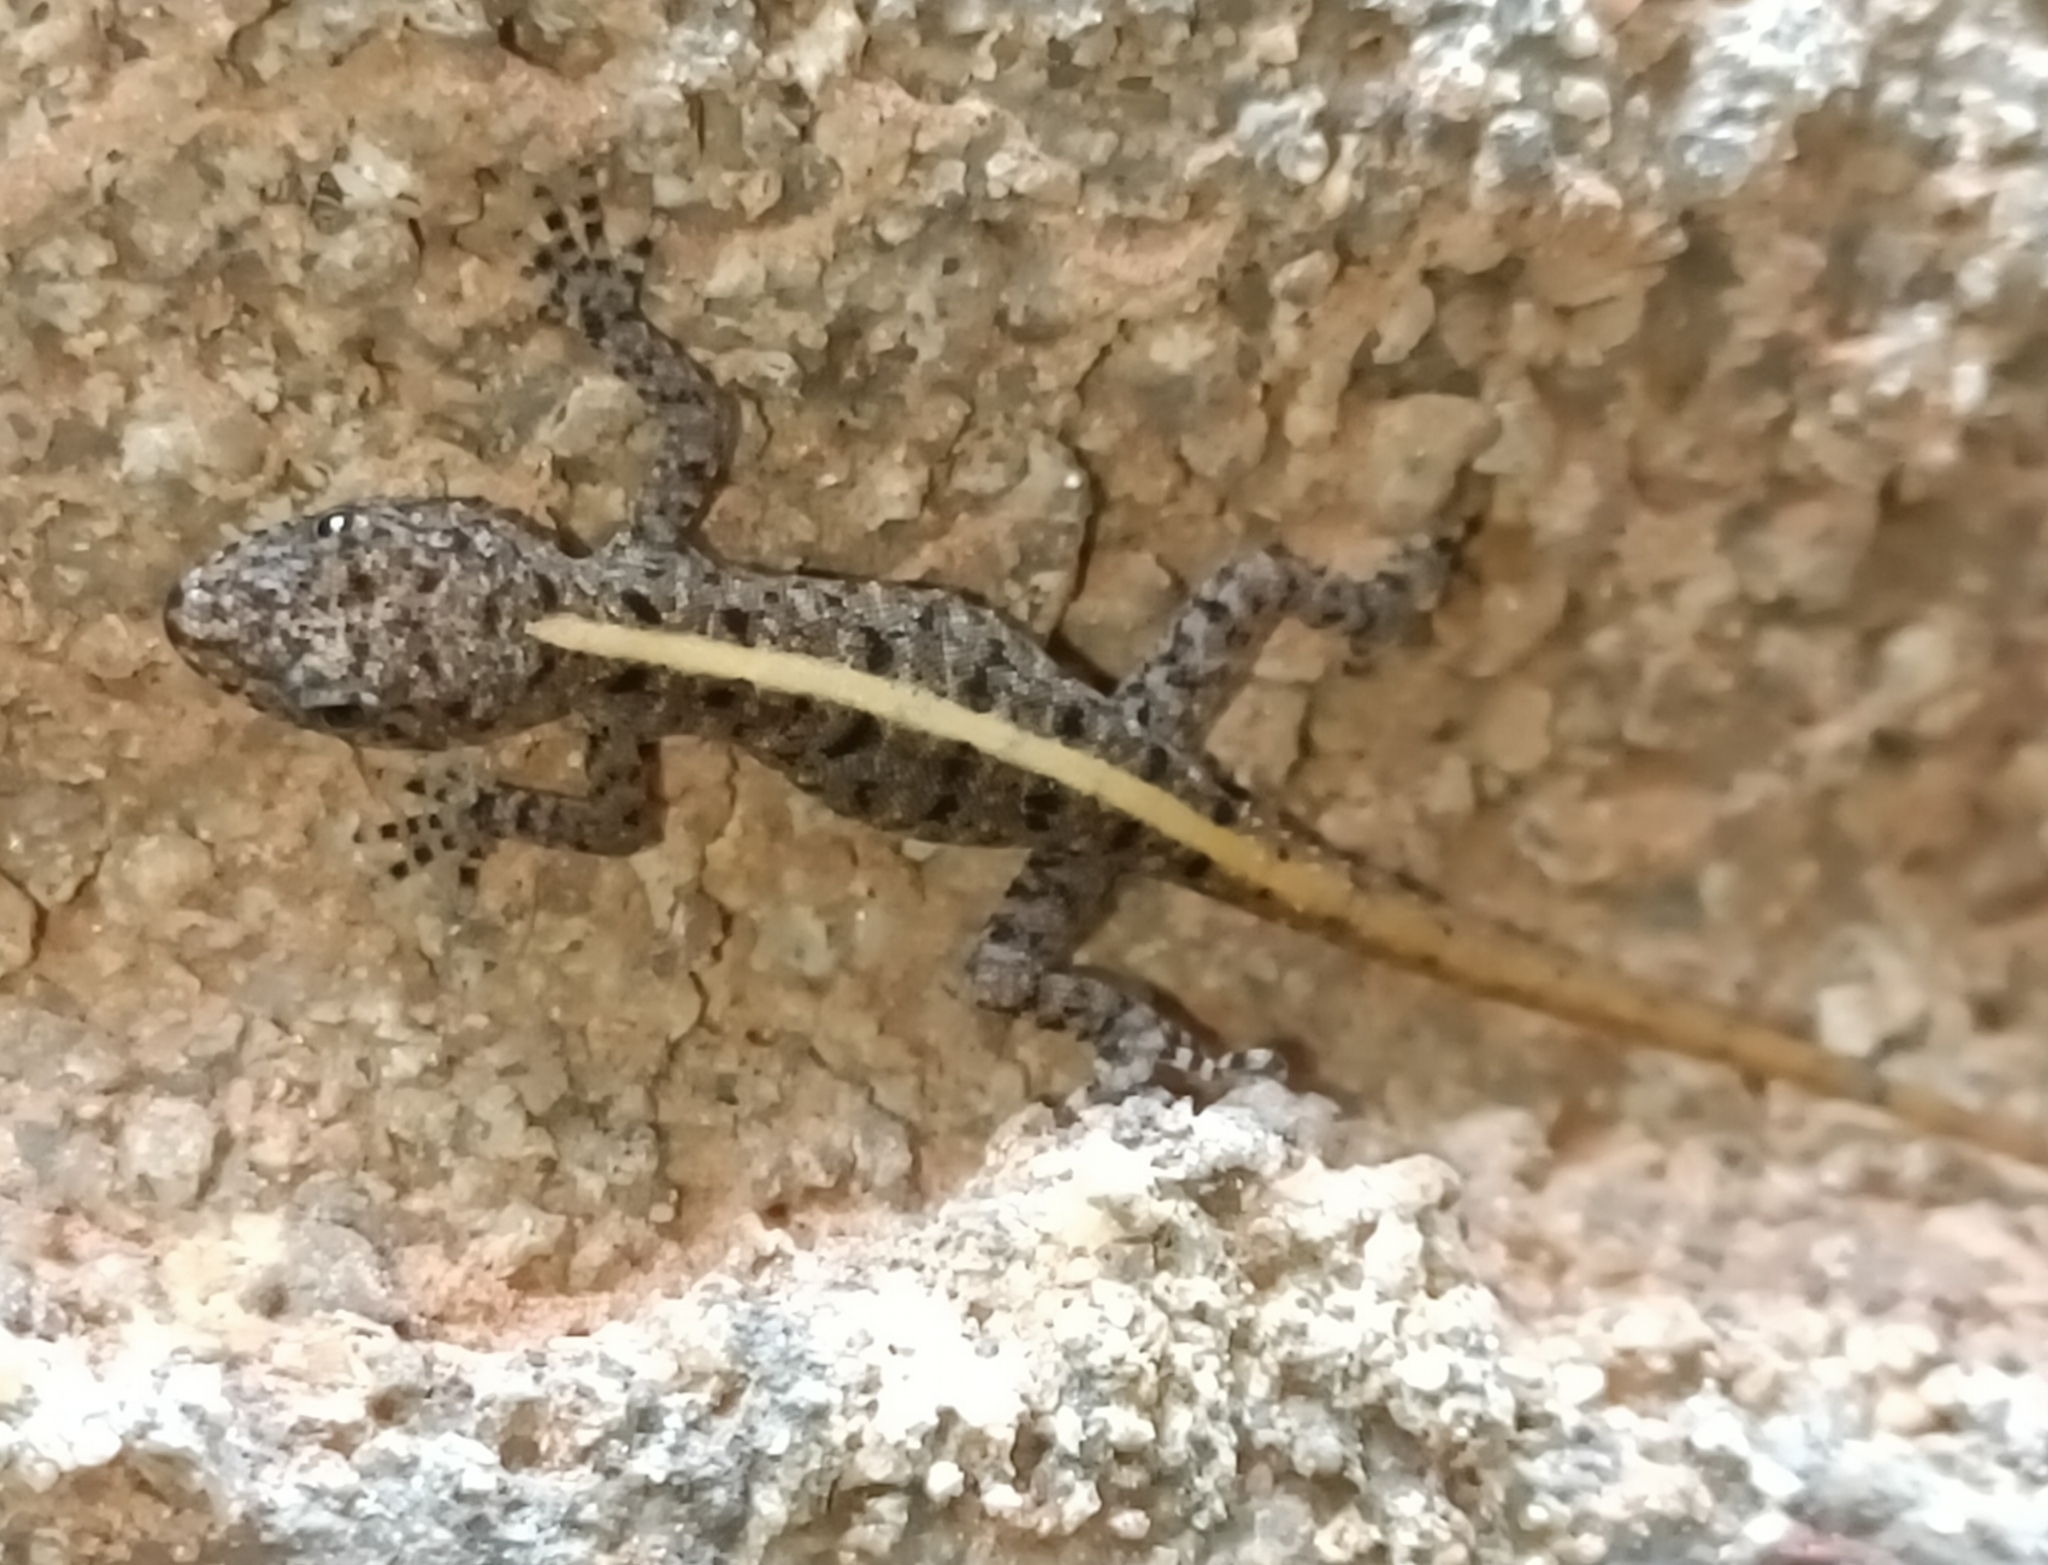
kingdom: Animalia
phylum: Chordata
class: Squamata
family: Gekkonidae
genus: Cnemaspis
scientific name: Cnemaspis mysoriensis
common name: Mysore day gecko
